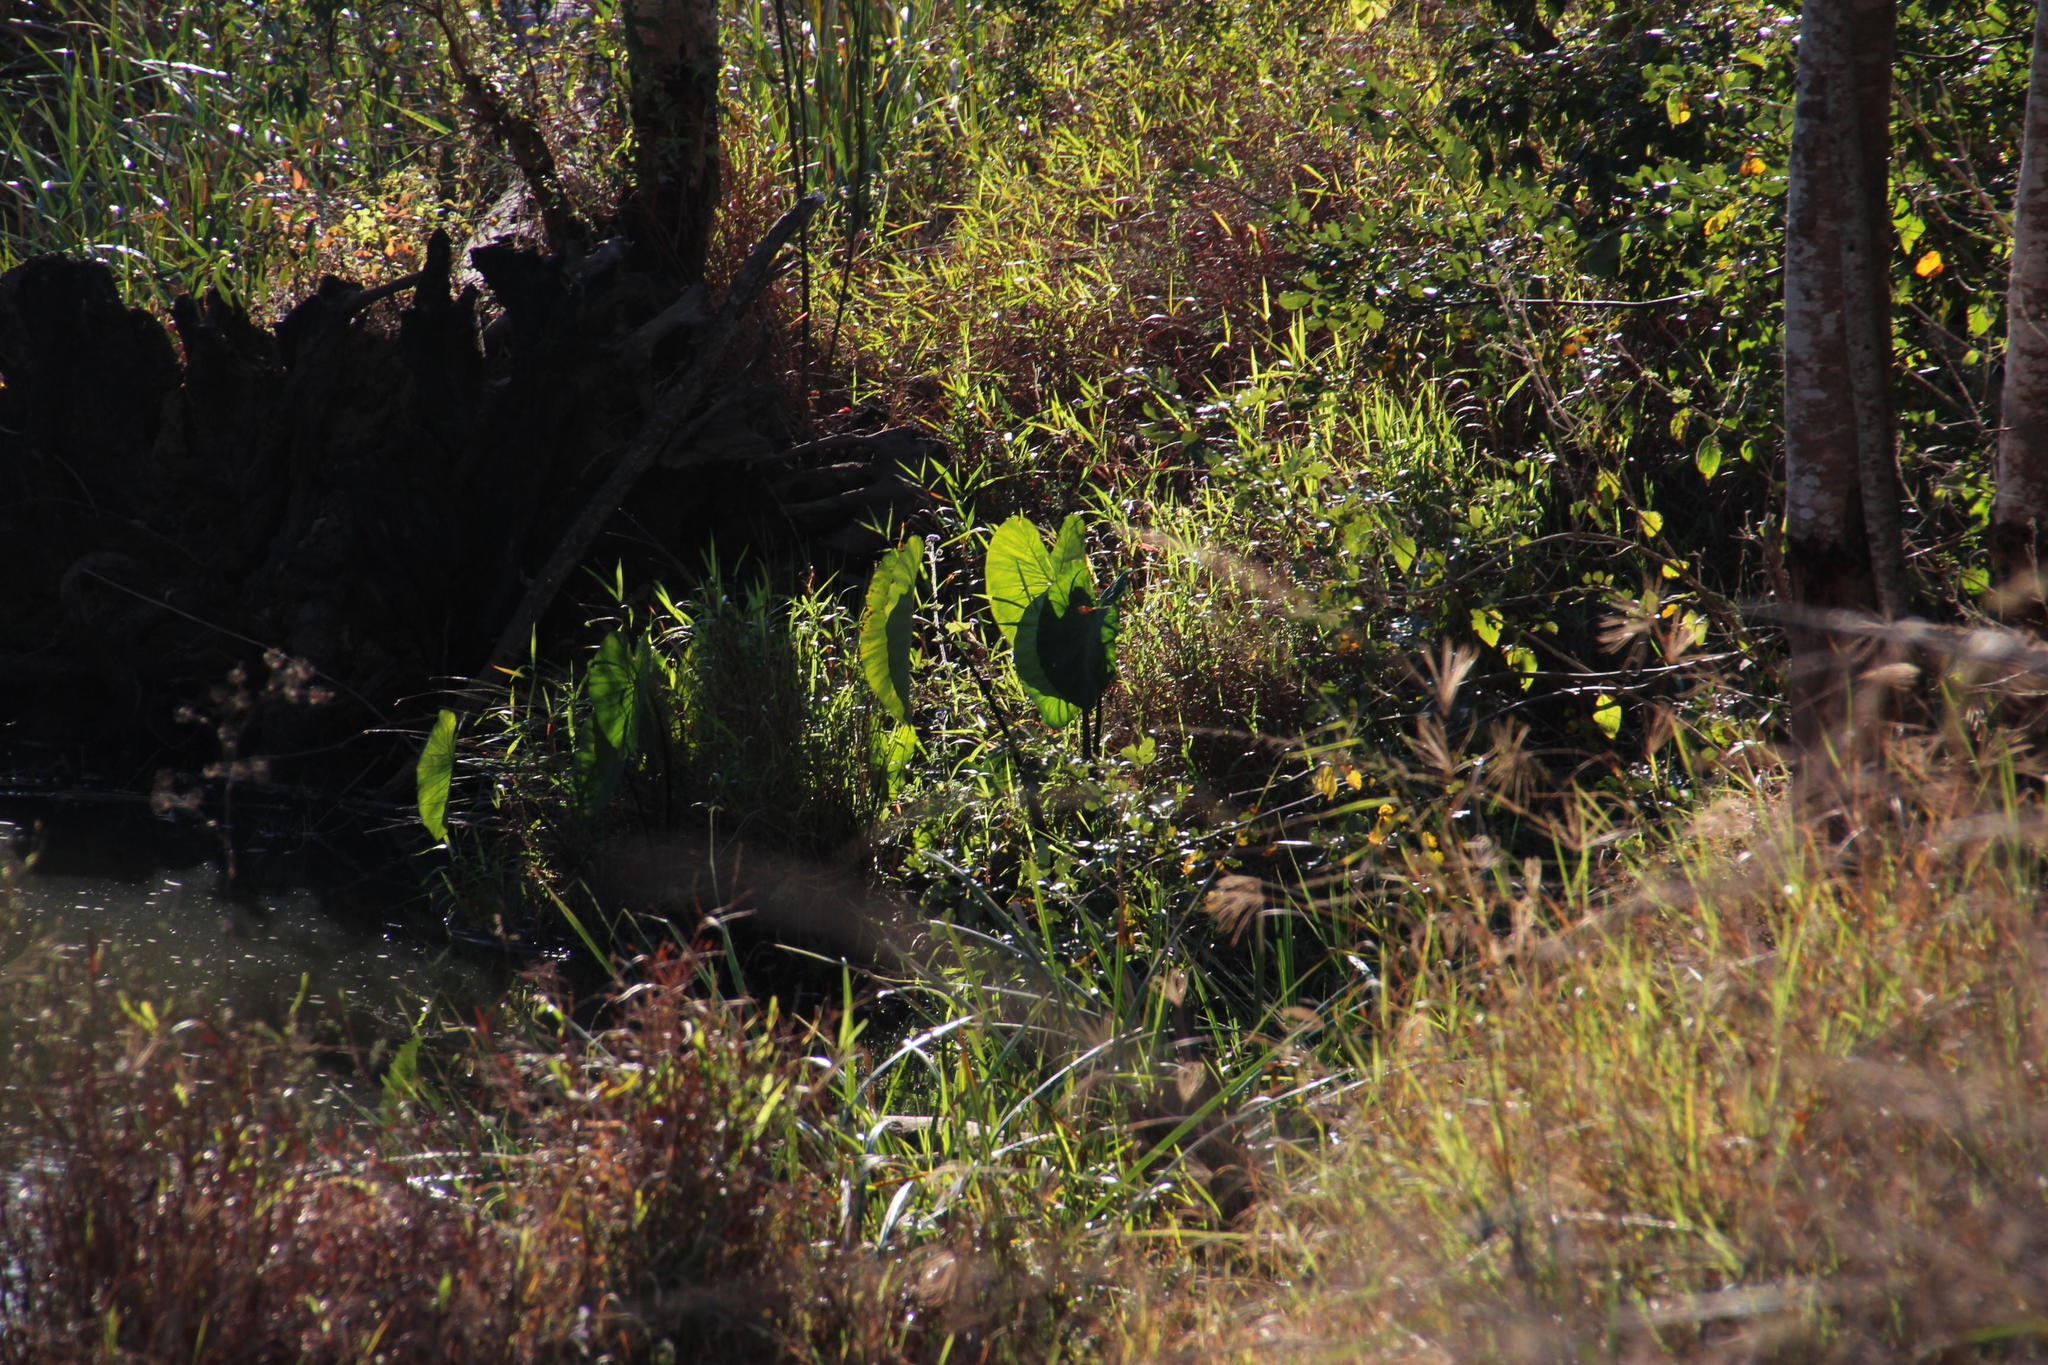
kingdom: Plantae
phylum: Tracheophyta
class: Liliopsida
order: Alismatales
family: Araceae
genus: Colocasia
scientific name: Colocasia esculenta
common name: Taro
